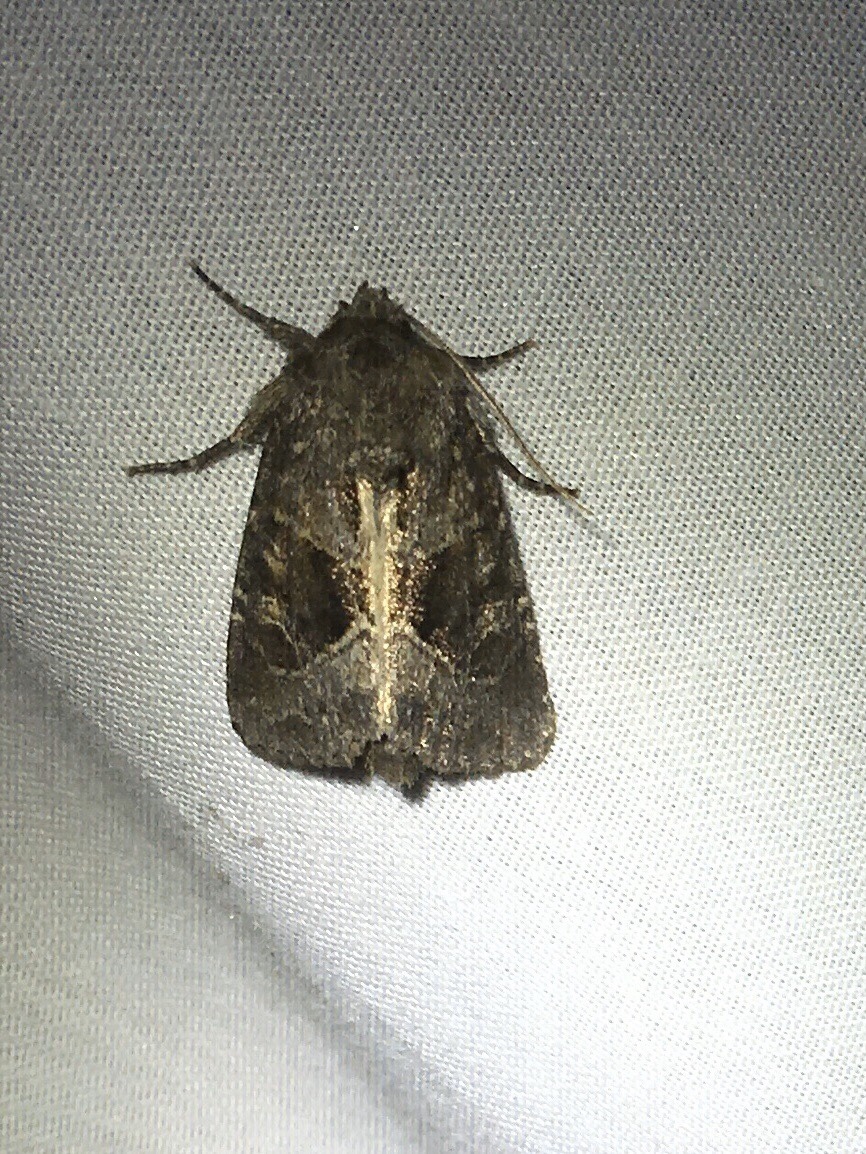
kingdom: Animalia
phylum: Arthropoda
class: Insecta
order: Lepidoptera
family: Noctuidae
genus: Oligia
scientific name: Oligia obtusa
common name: Obtuse sedge borer
